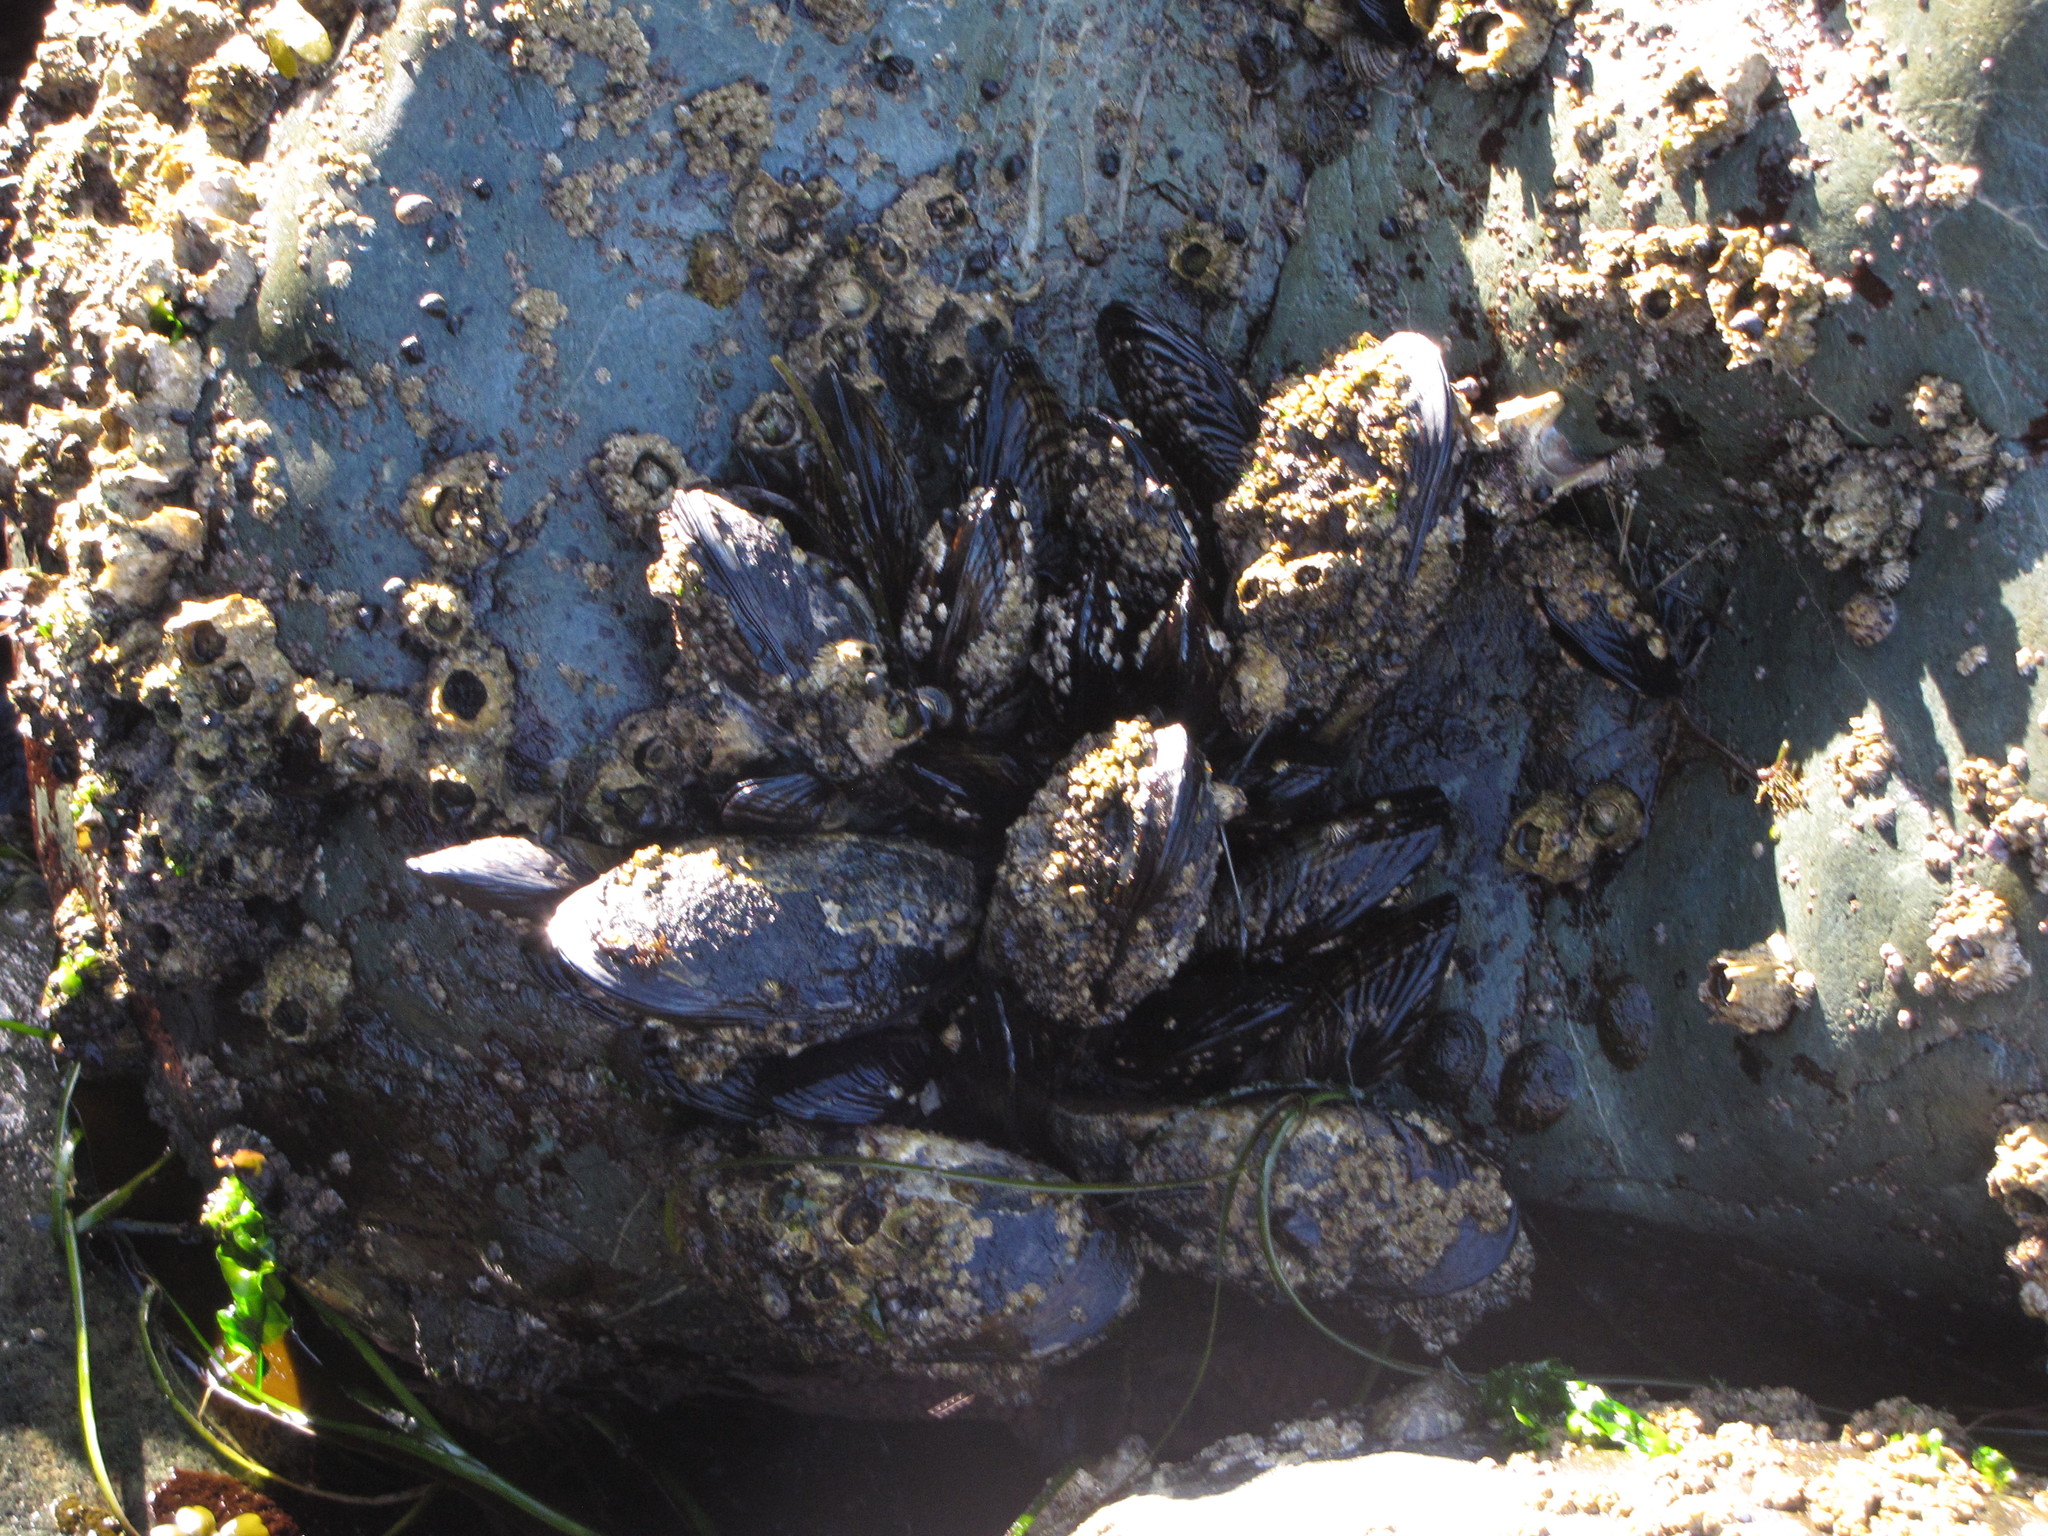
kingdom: Animalia
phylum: Mollusca
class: Bivalvia
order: Mytilida
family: Mytilidae
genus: Mytilus
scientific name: Mytilus californianus
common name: California mussel
